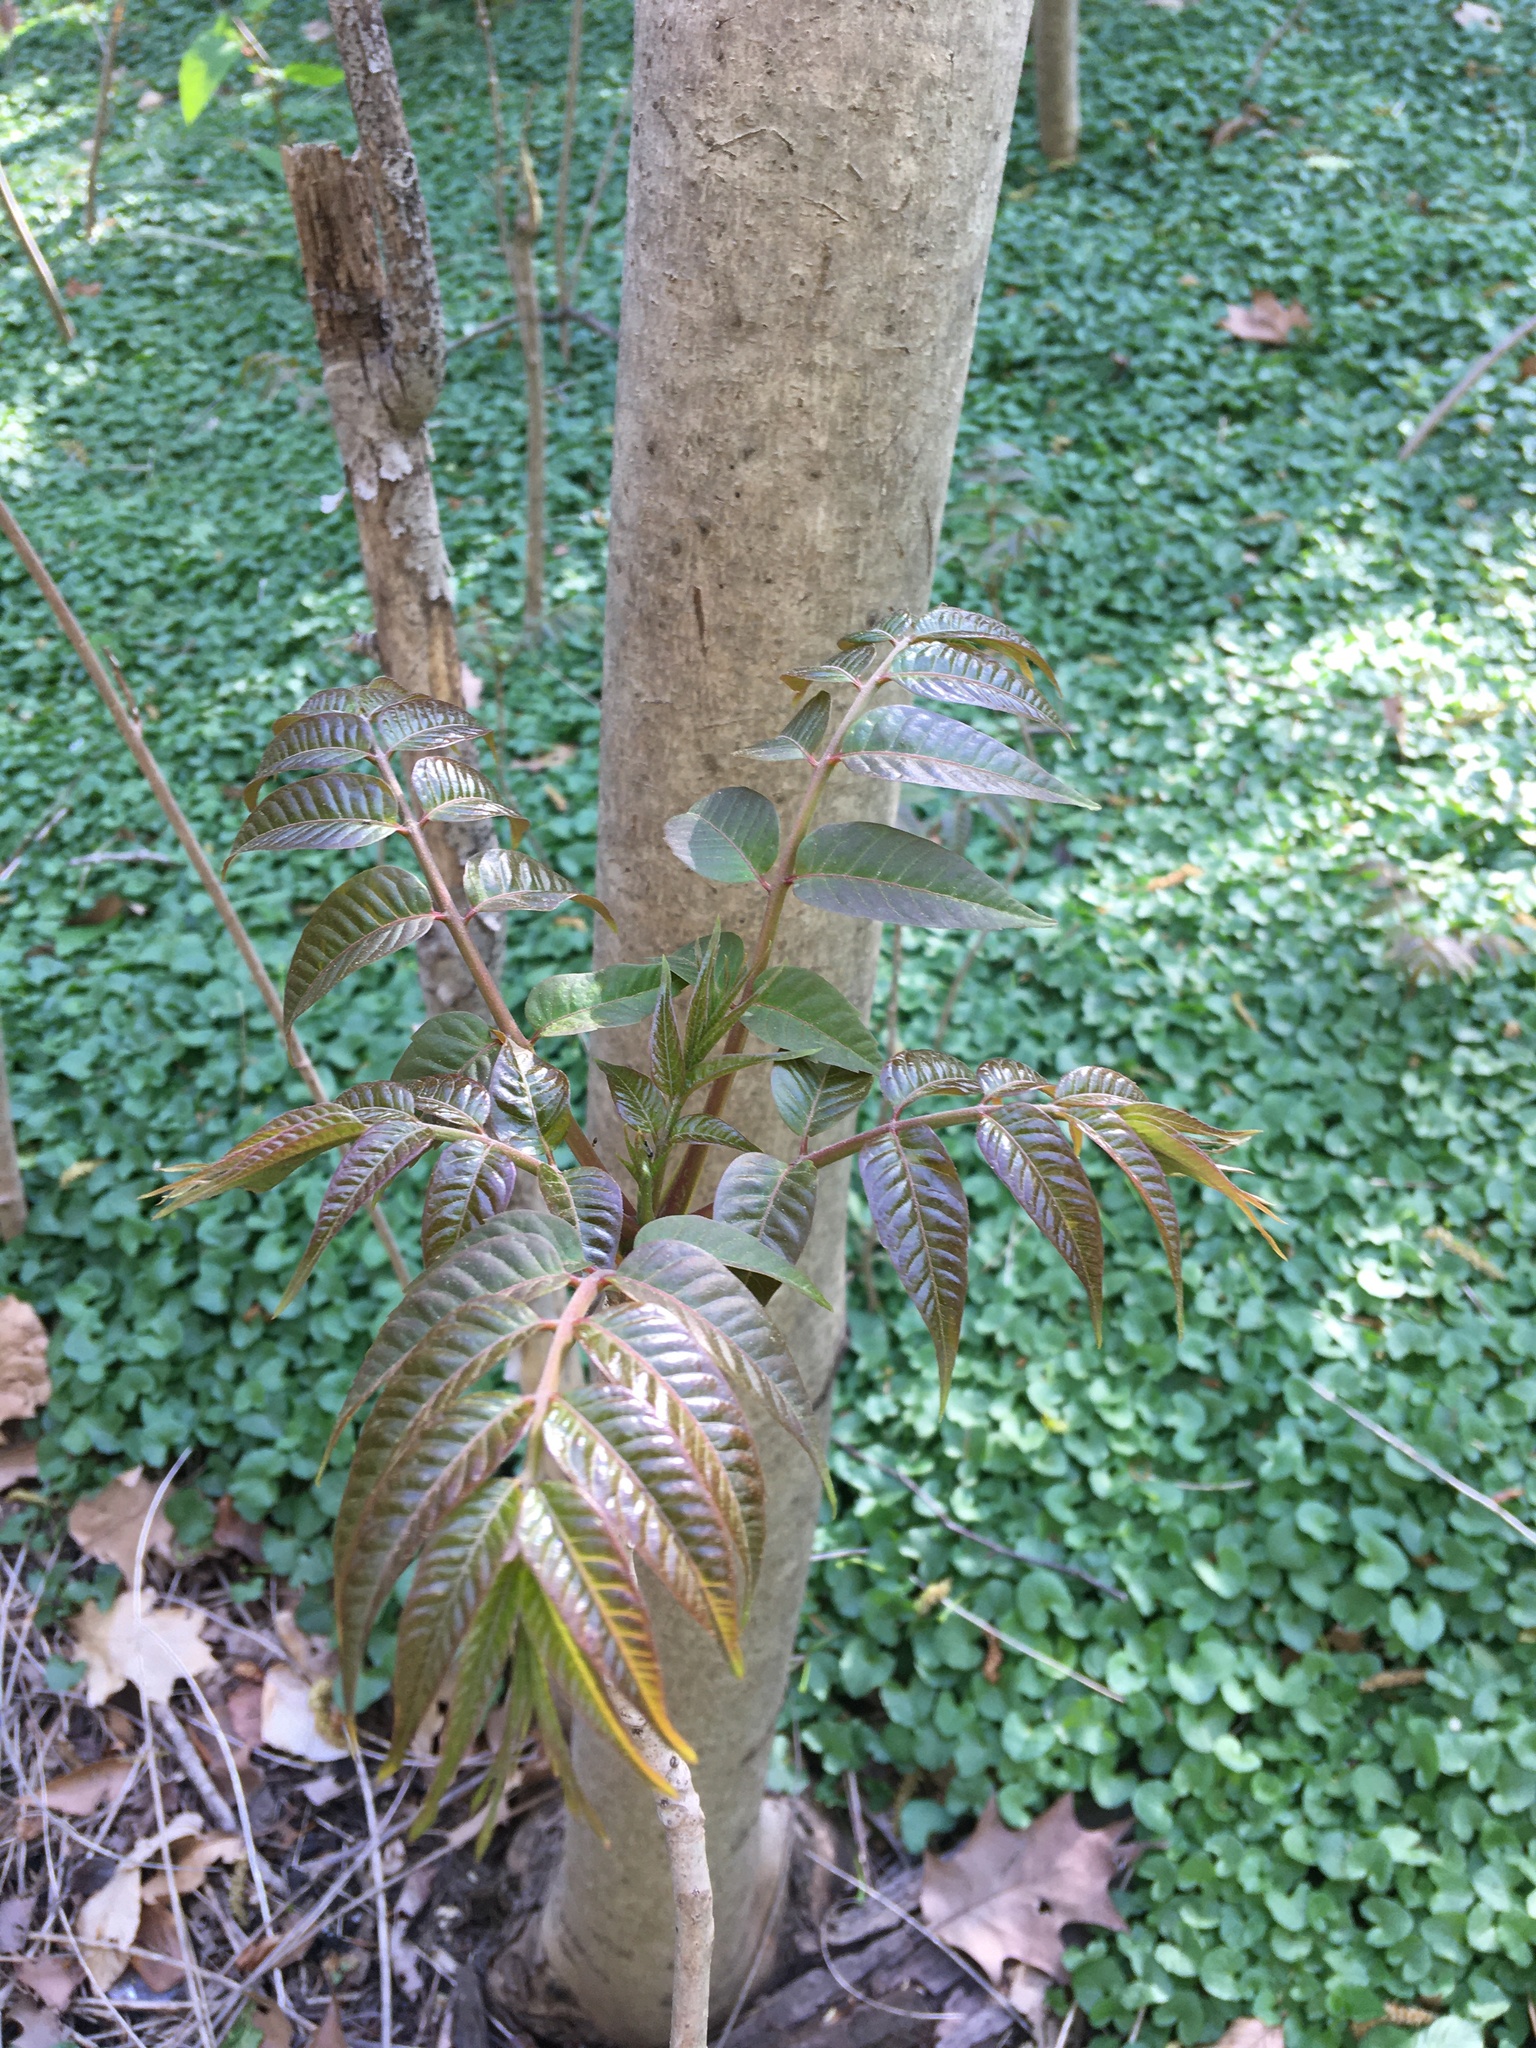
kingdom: Plantae
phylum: Tracheophyta
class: Magnoliopsida
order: Sapindales
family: Meliaceae
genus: Toona
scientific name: Toona sinensis
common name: Red toon
